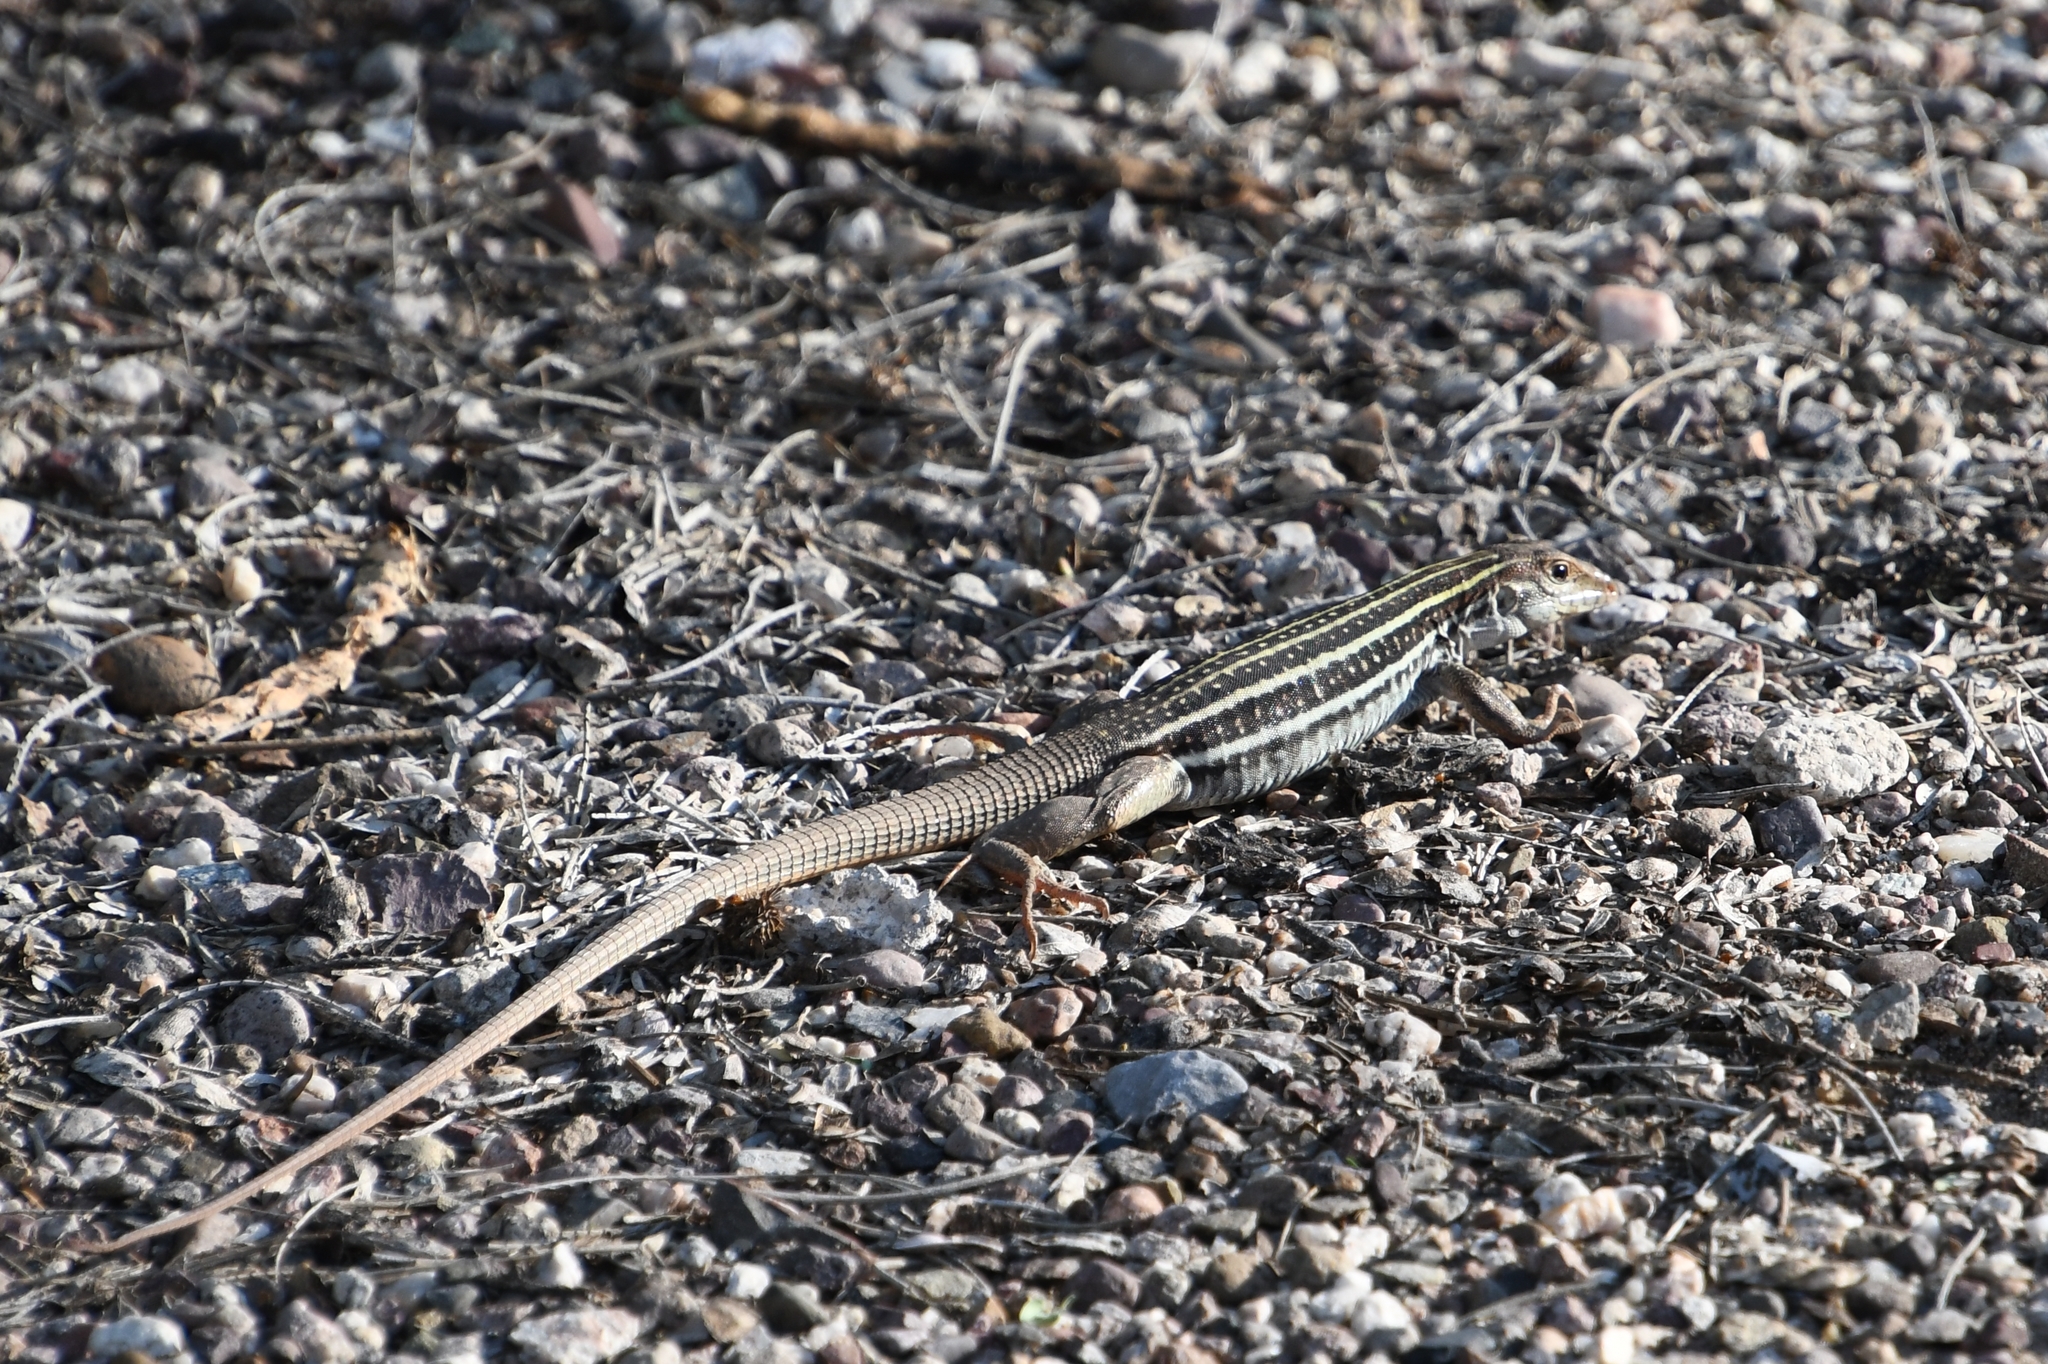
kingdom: Animalia
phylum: Chordata
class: Squamata
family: Teiidae
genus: Aspidoscelis
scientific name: Aspidoscelis sonorae
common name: Sonoran spotted whiptail
